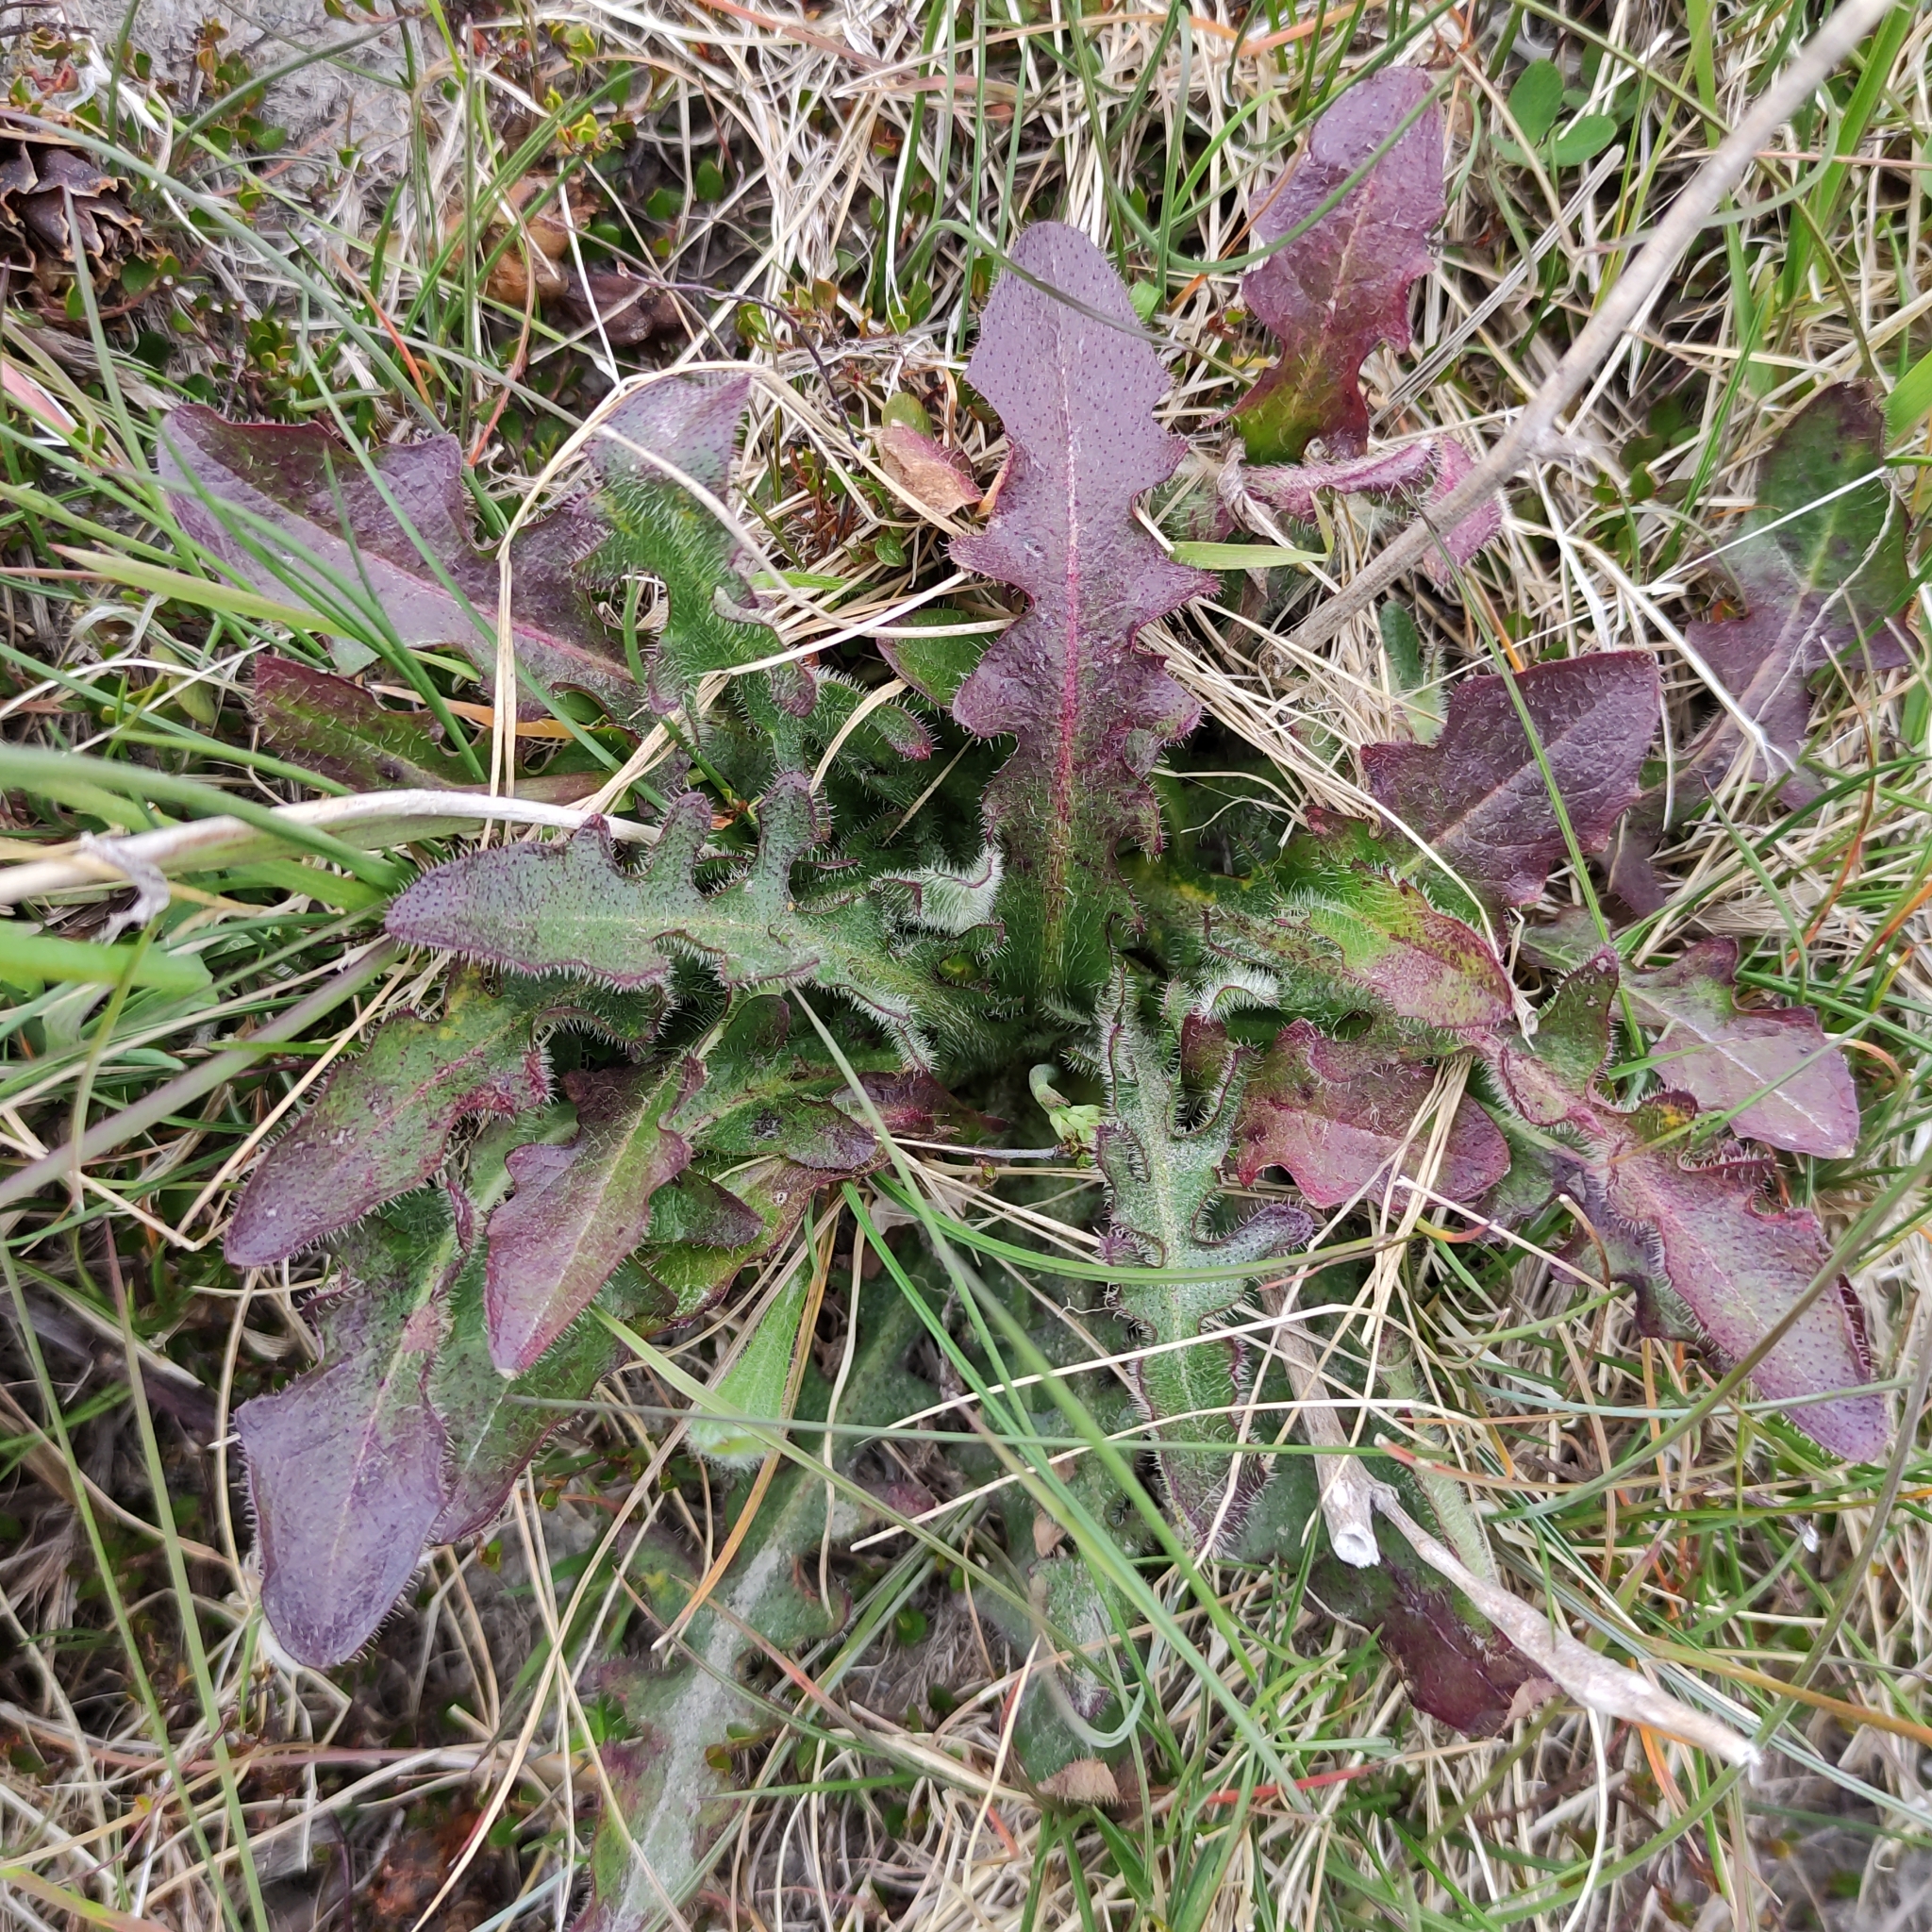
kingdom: Plantae
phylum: Tracheophyta
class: Magnoliopsida
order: Asterales
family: Asteraceae
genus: Hypochaeris
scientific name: Hypochaeris radicata
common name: Flatweed
